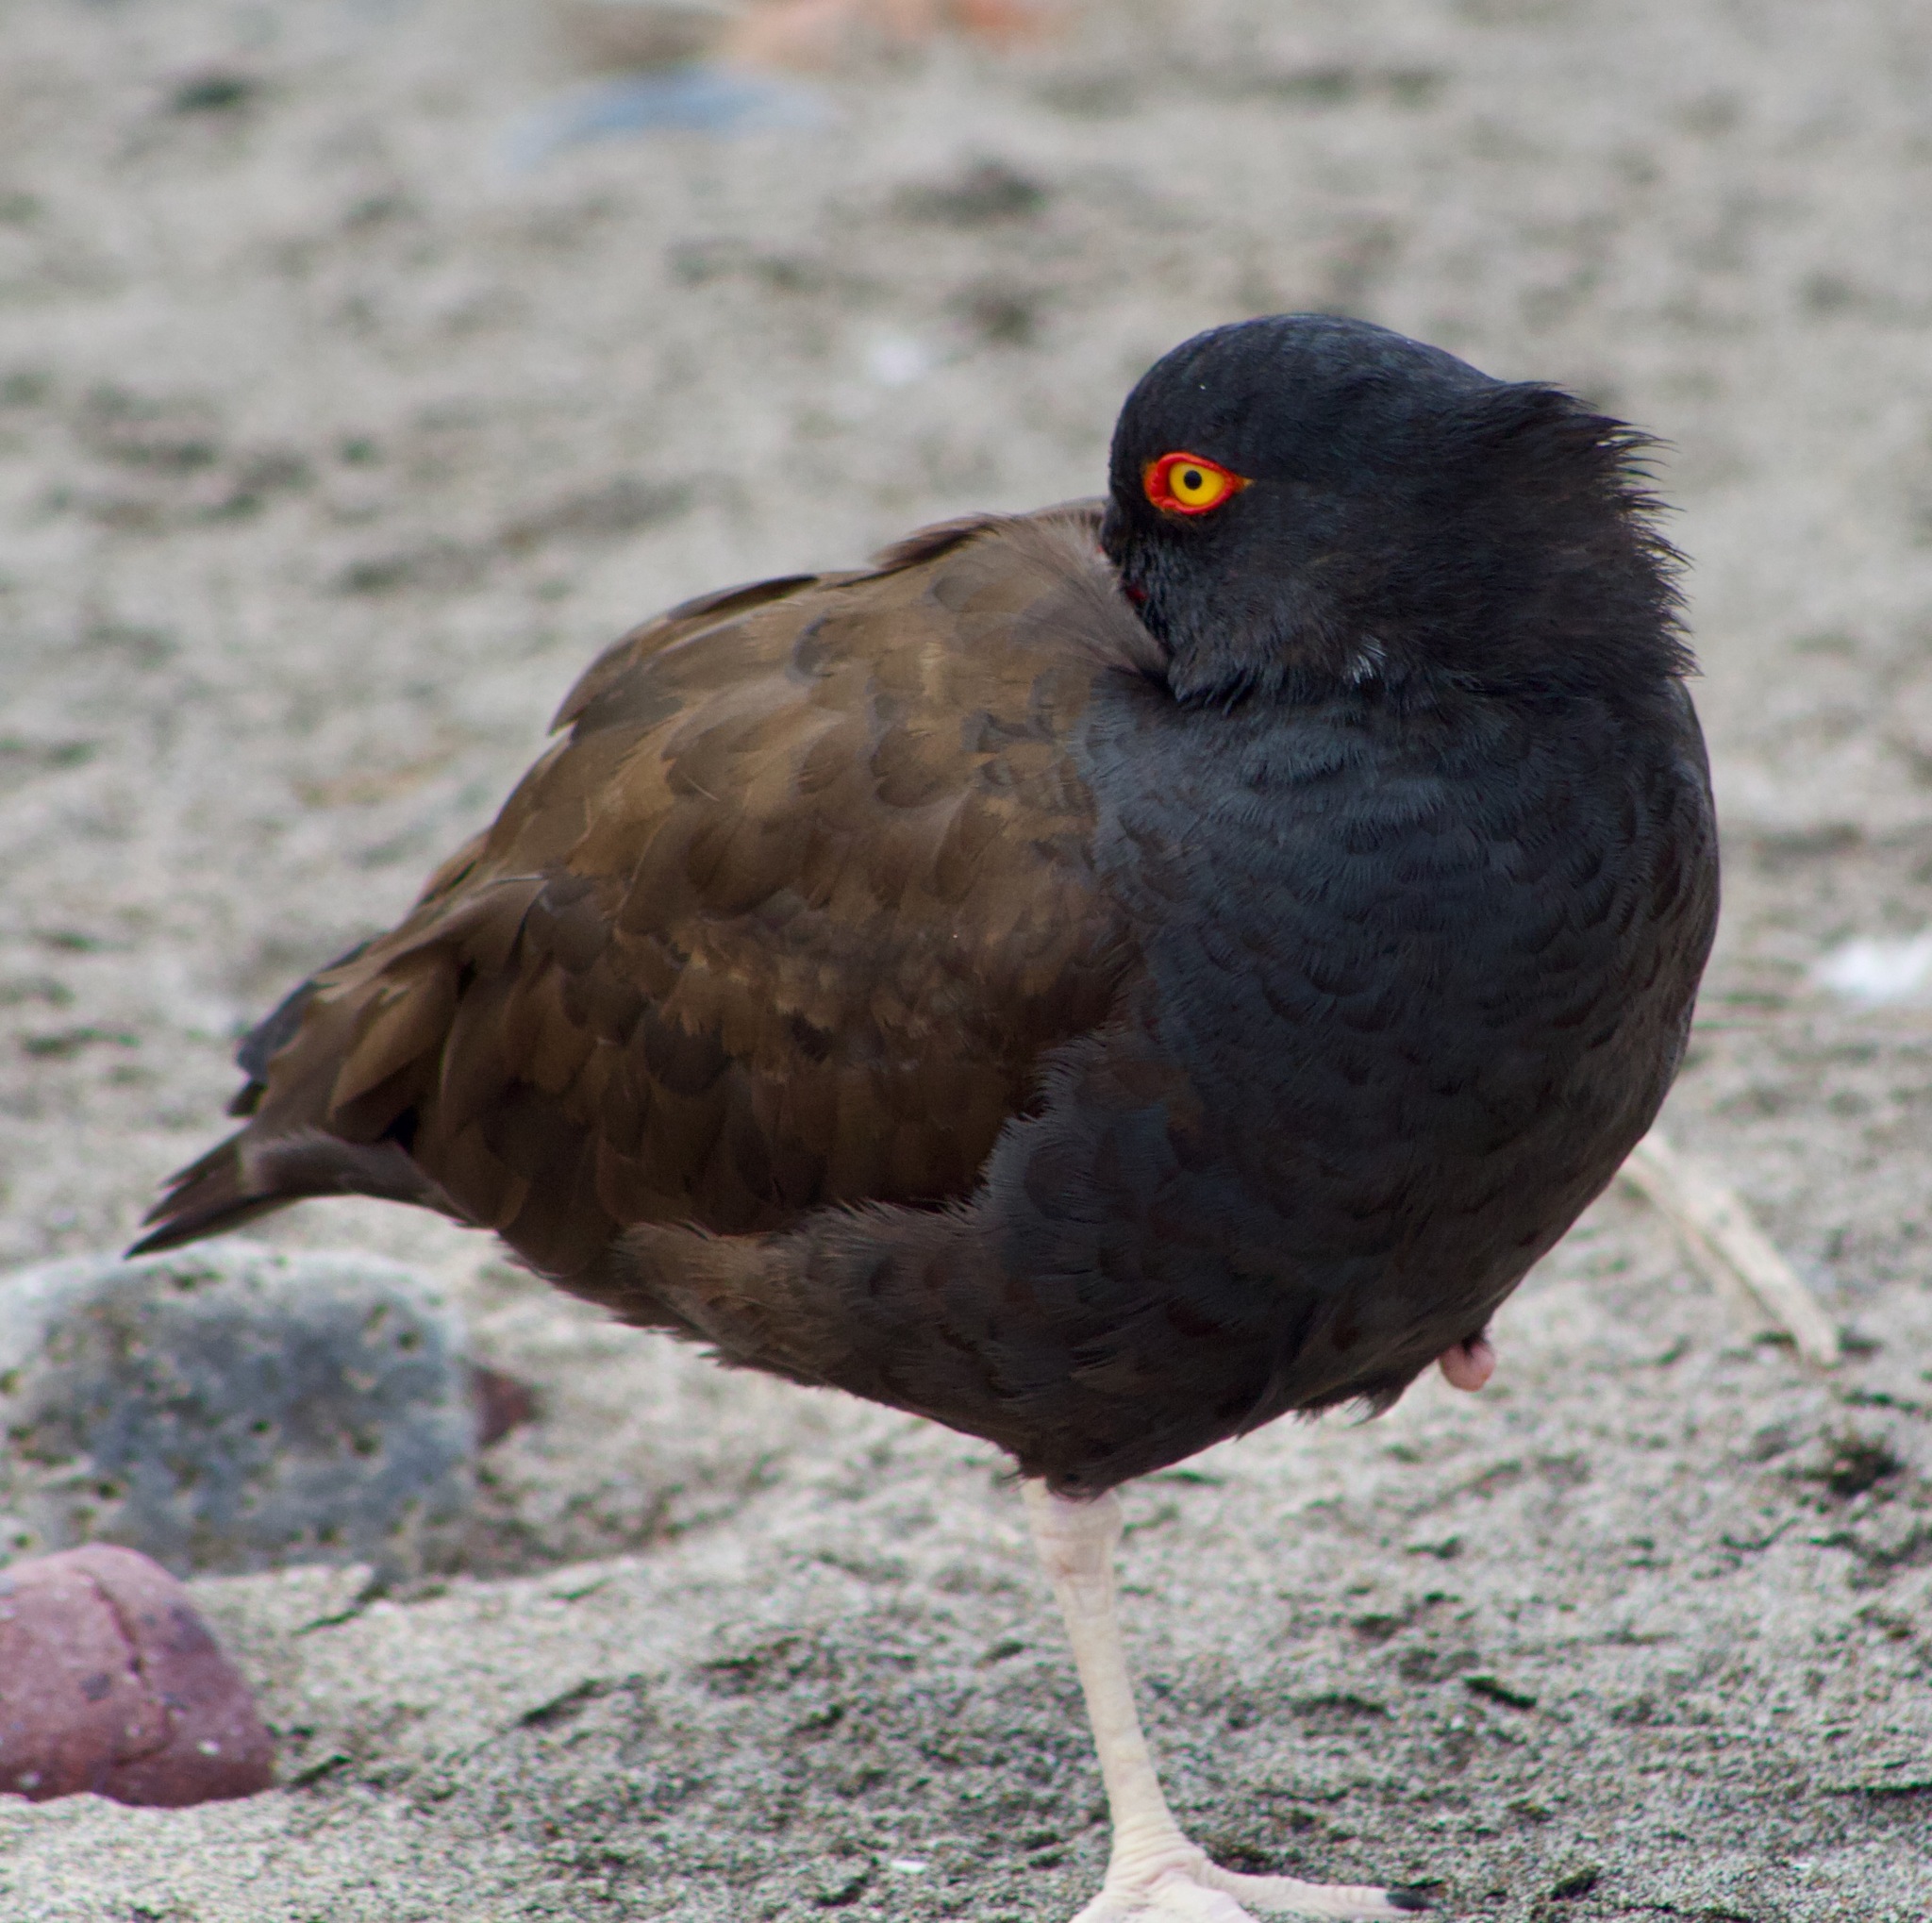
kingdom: Animalia
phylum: Chordata
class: Aves
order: Charadriiformes
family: Haematopodidae
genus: Haematopus
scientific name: Haematopus ater
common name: Blackish oystercatcher
